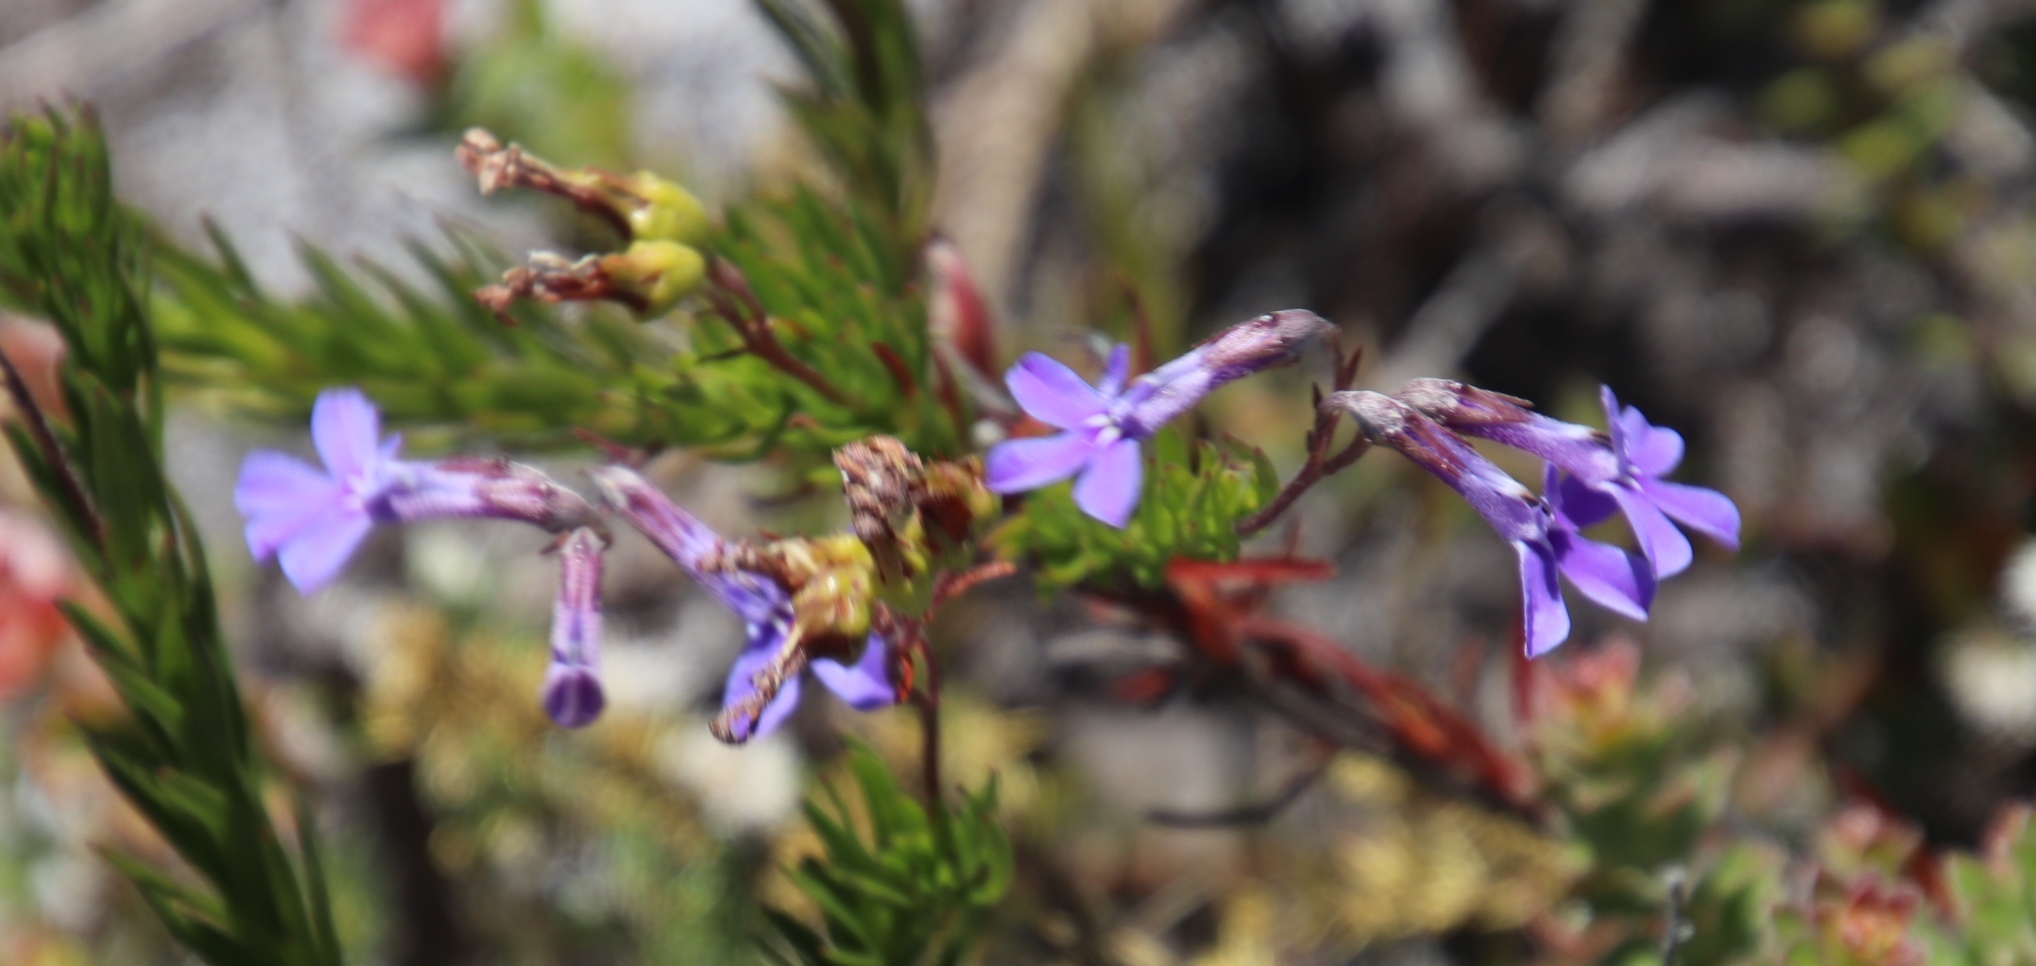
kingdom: Plantae
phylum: Tracheophyta
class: Magnoliopsida
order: Asterales
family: Campanulaceae
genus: Lobelia
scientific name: Lobelia pinifolia
